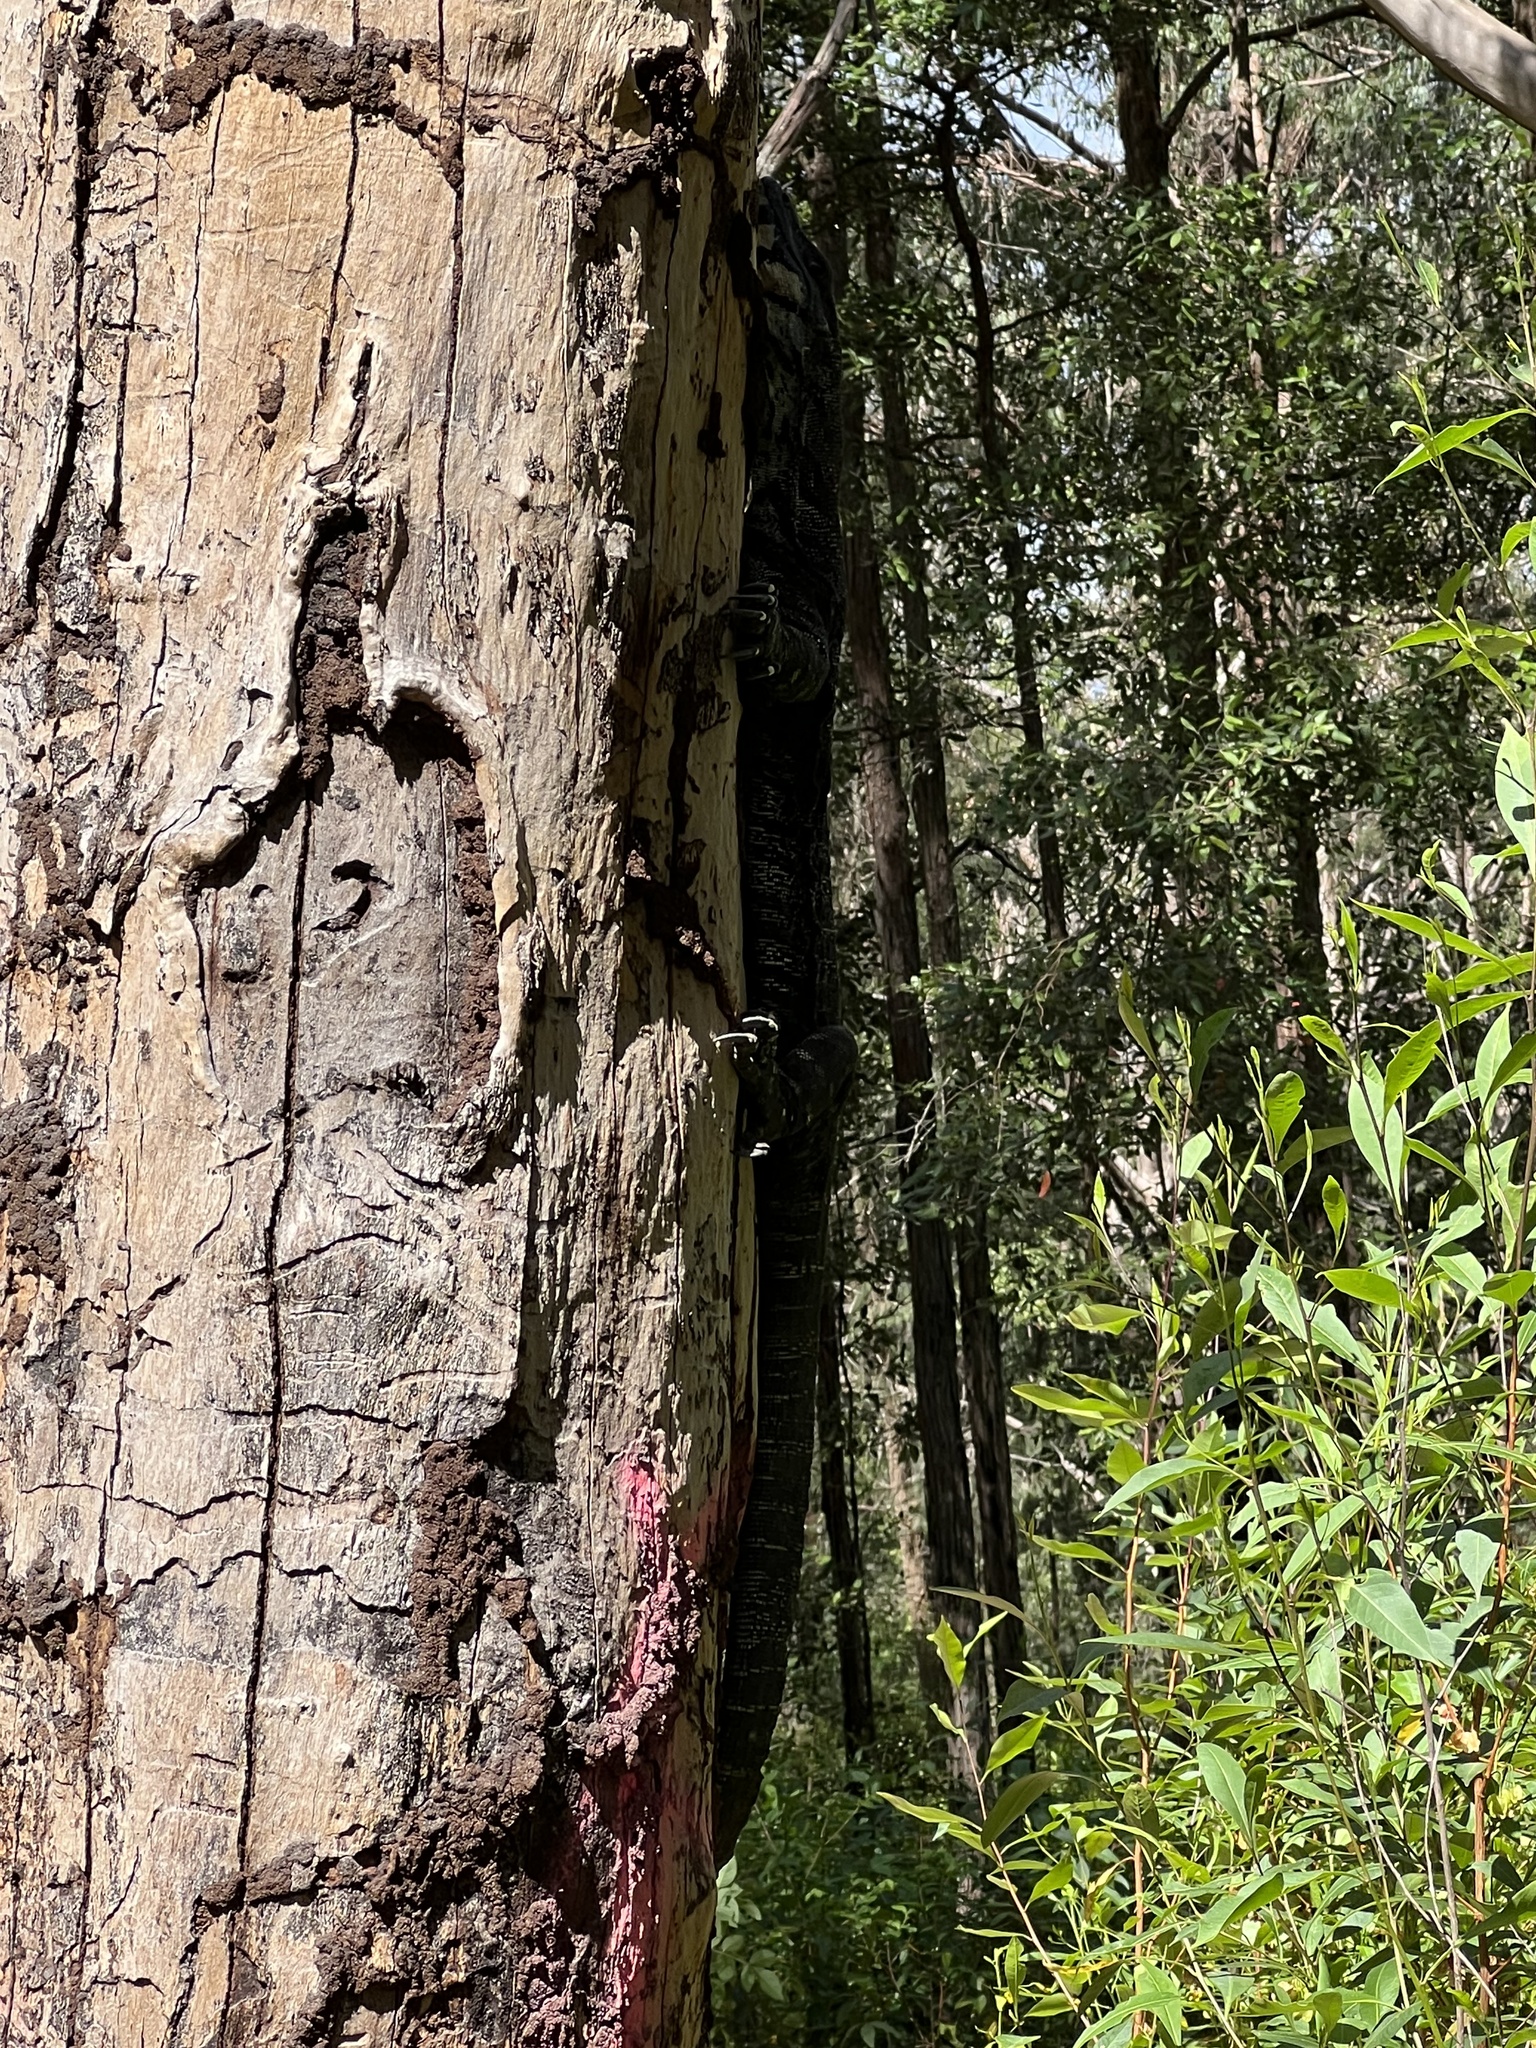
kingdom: Animalia
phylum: Chordata
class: Squamata
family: Varanidae
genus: Varanus
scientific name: Varanus varius
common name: Lace monitor
